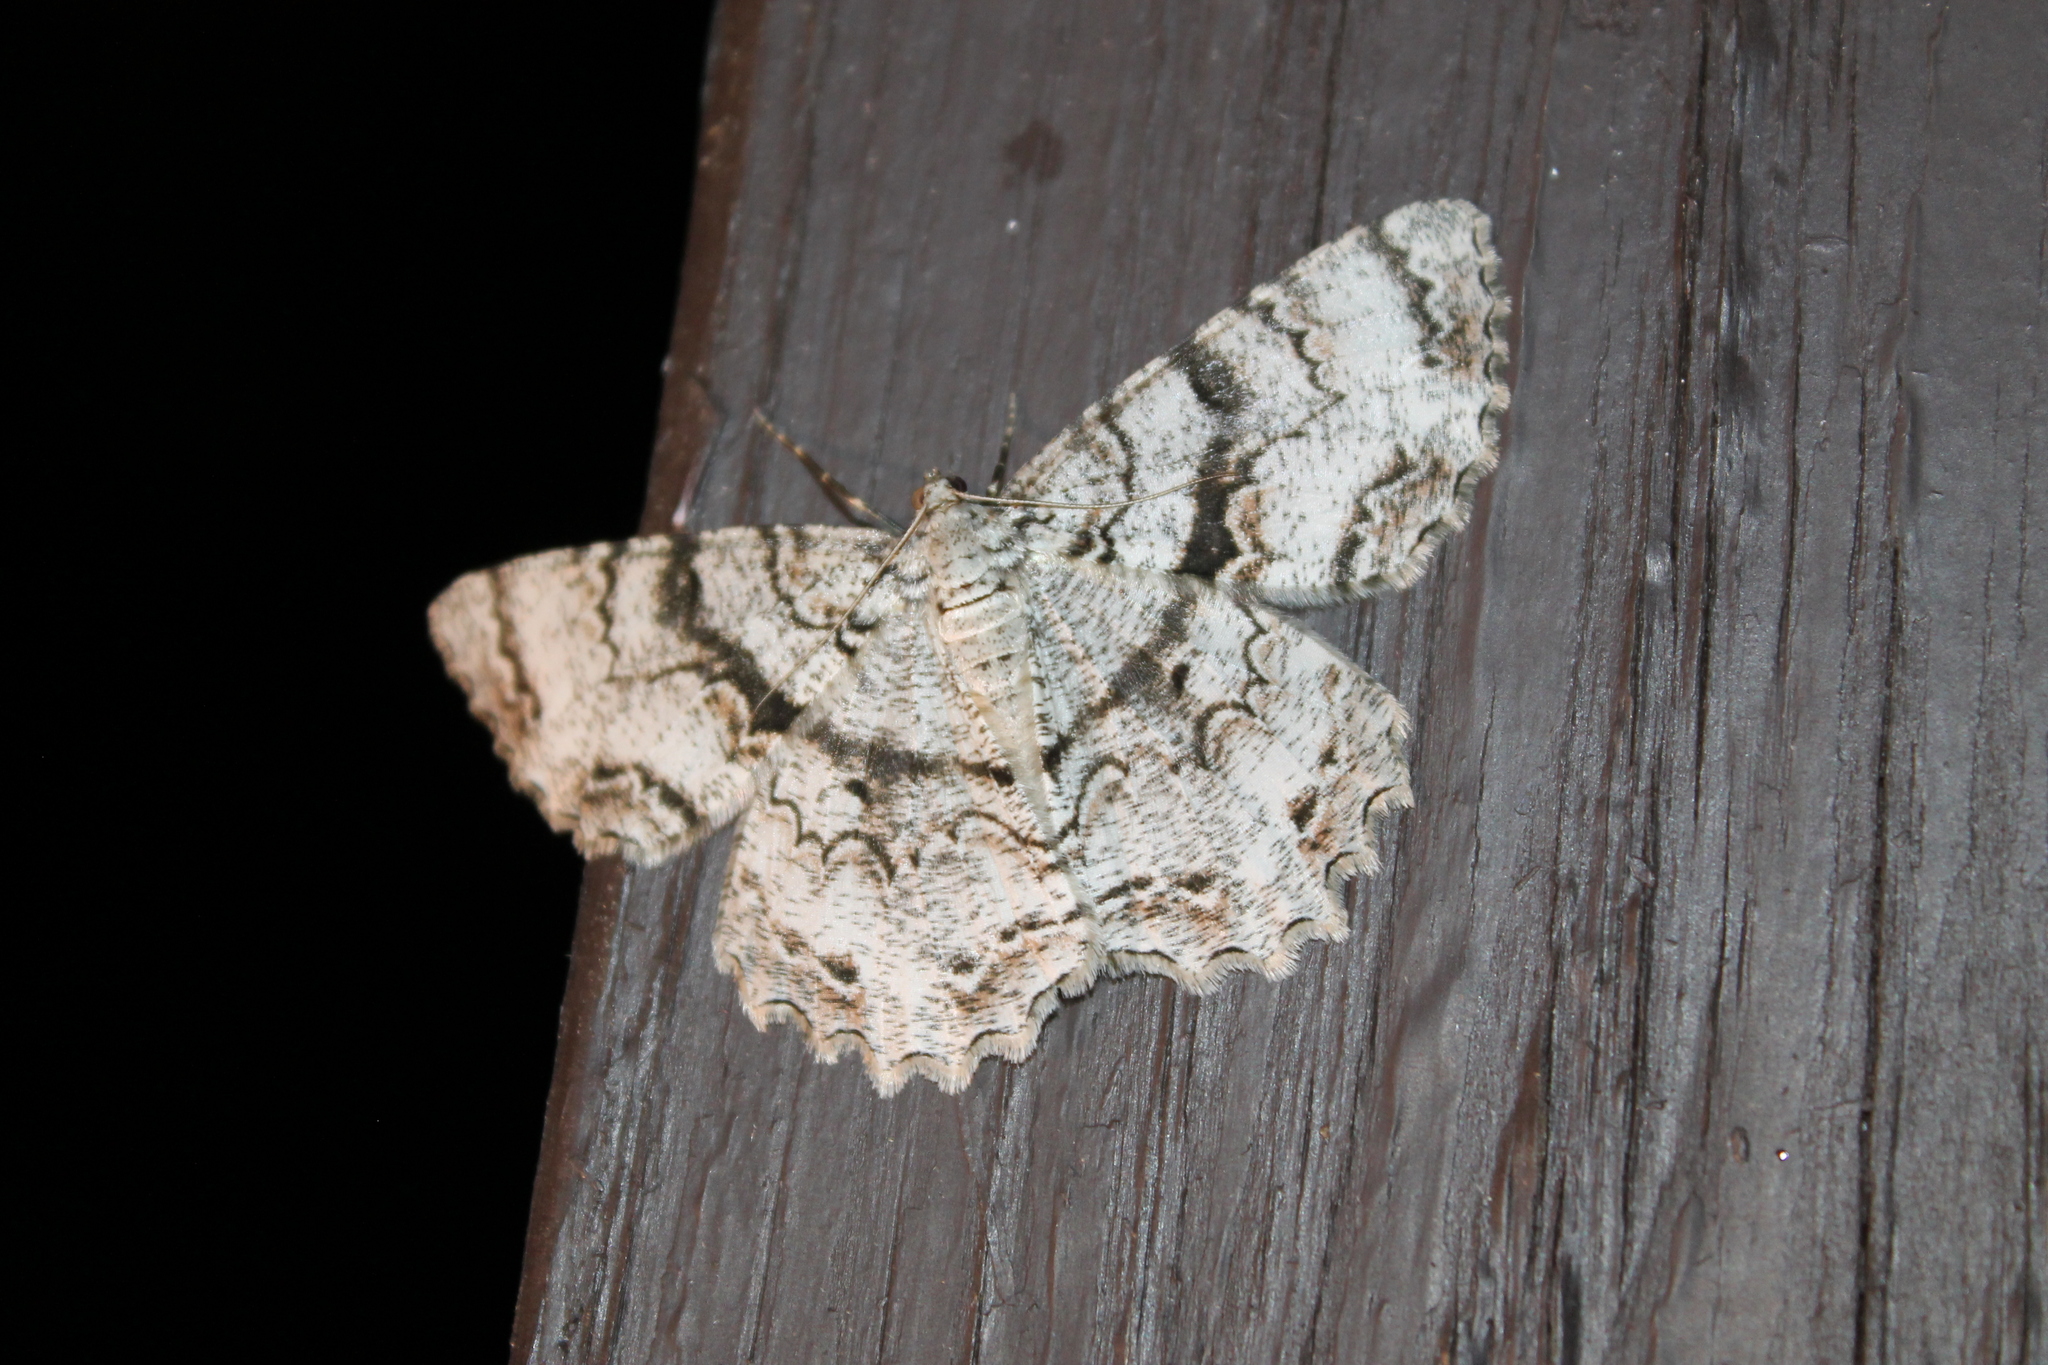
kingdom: Animalia
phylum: Arthropoda
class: Insecta
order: Lepidoptera
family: Geometridae
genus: Epimecis
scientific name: Epimecis hortaria
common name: Tulip-tree beauty
